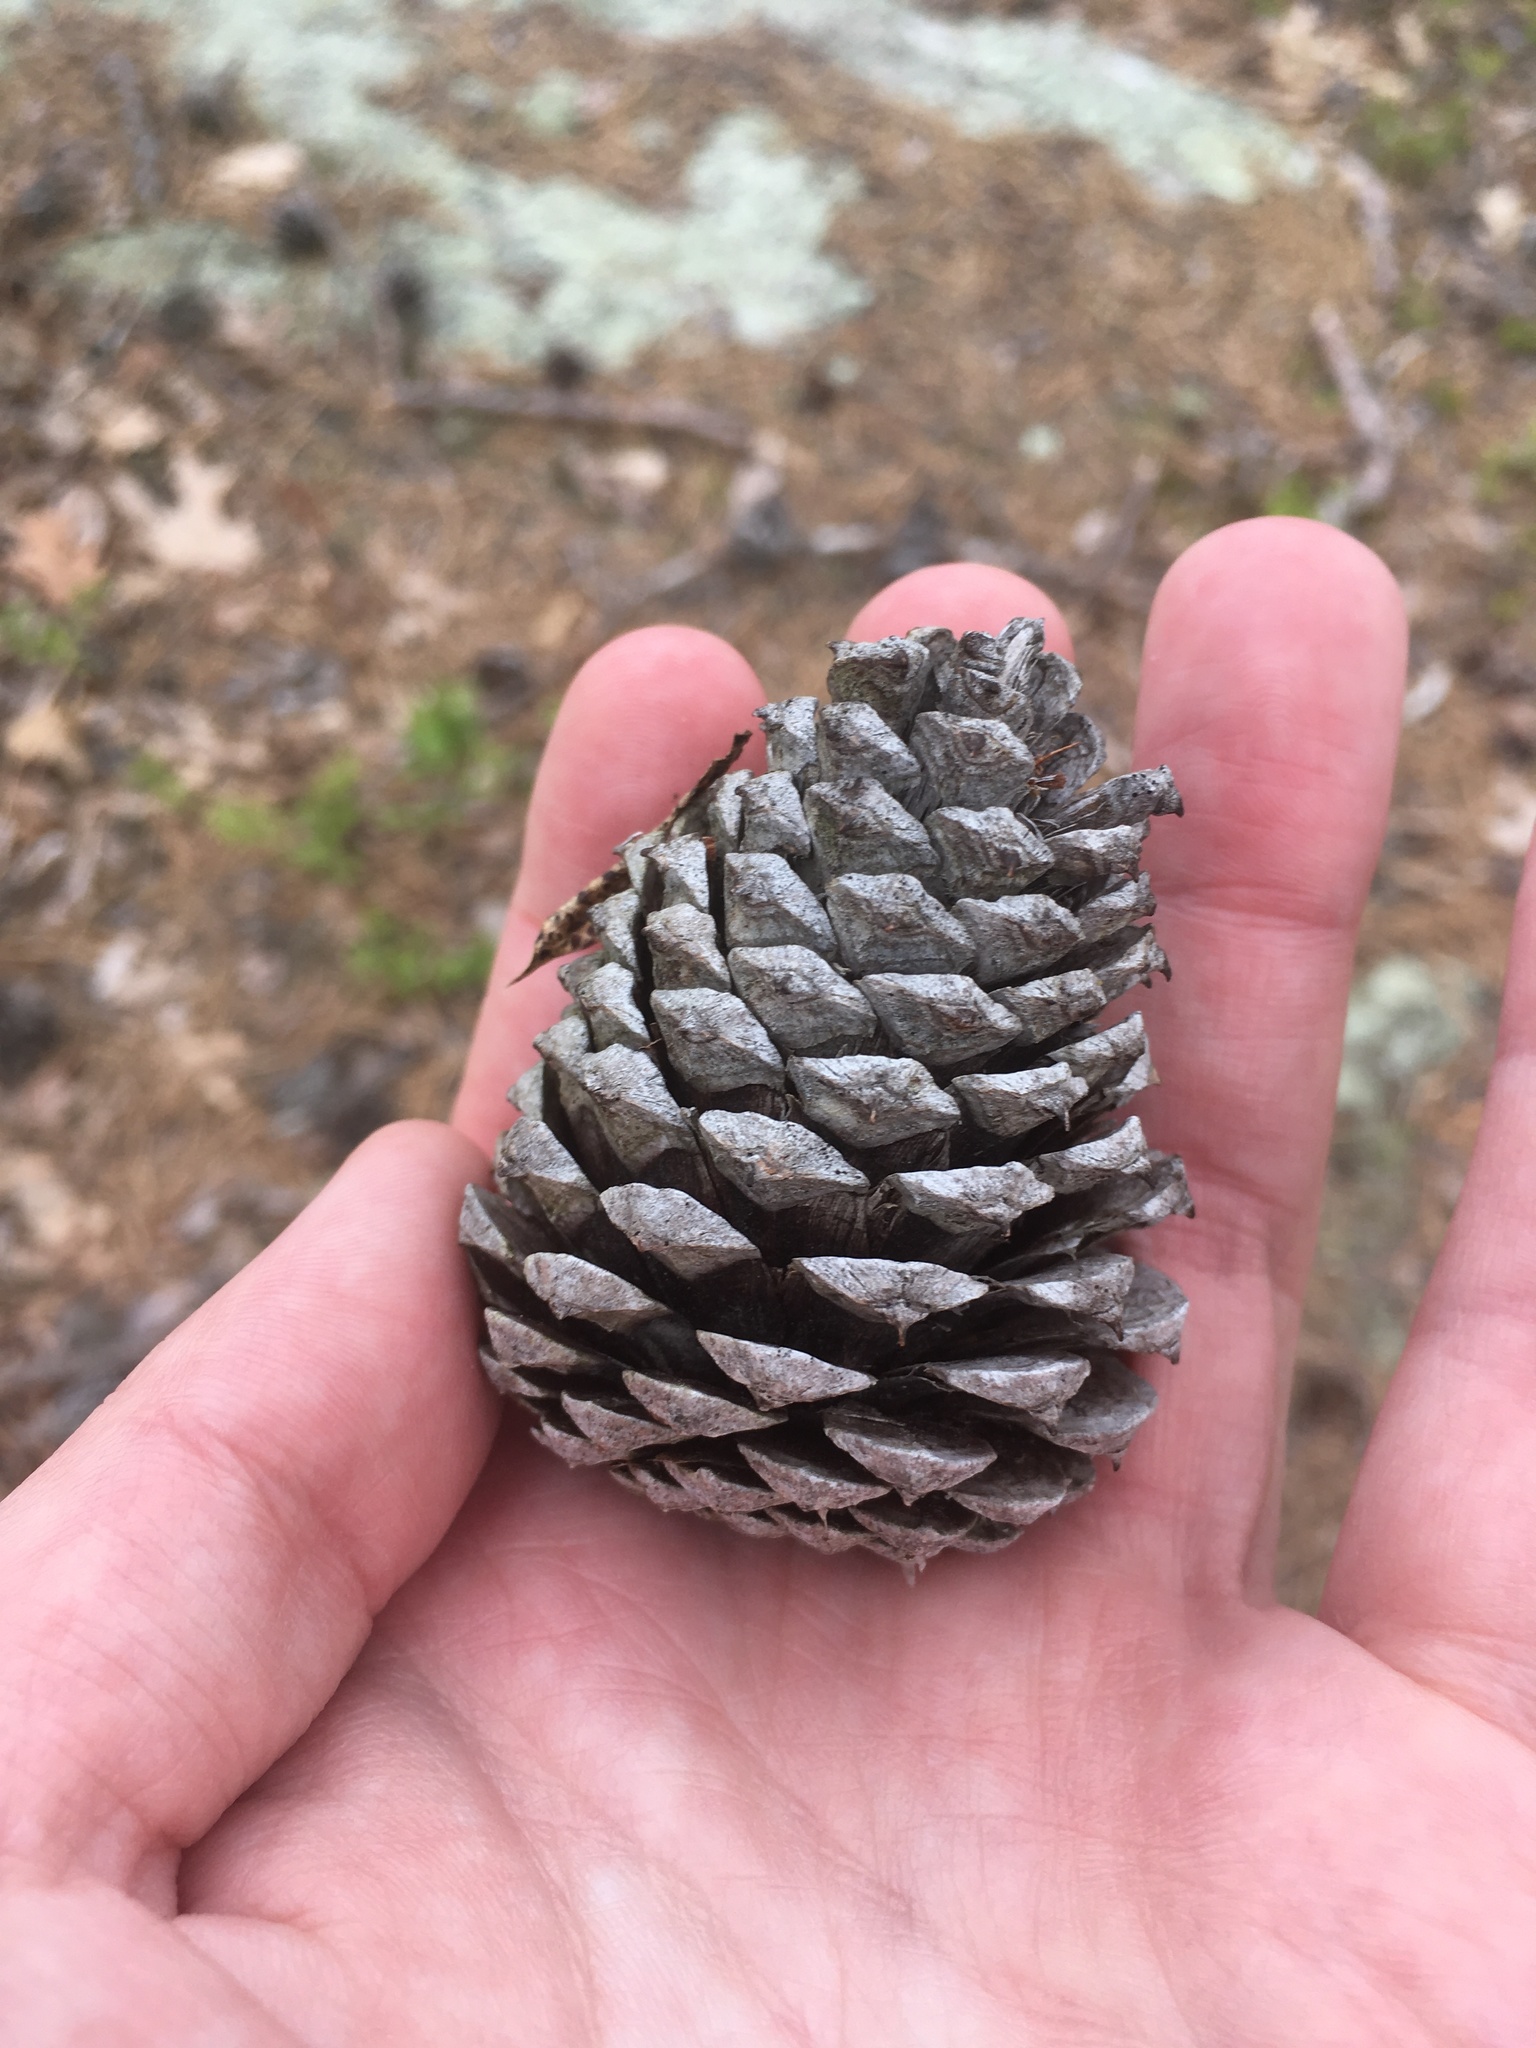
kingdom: Plantae
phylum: Tracheophyta
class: Pinopsida
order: Pinales
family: Pinaceae
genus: Pinus
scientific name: Pinus rigida
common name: Pitch pine
